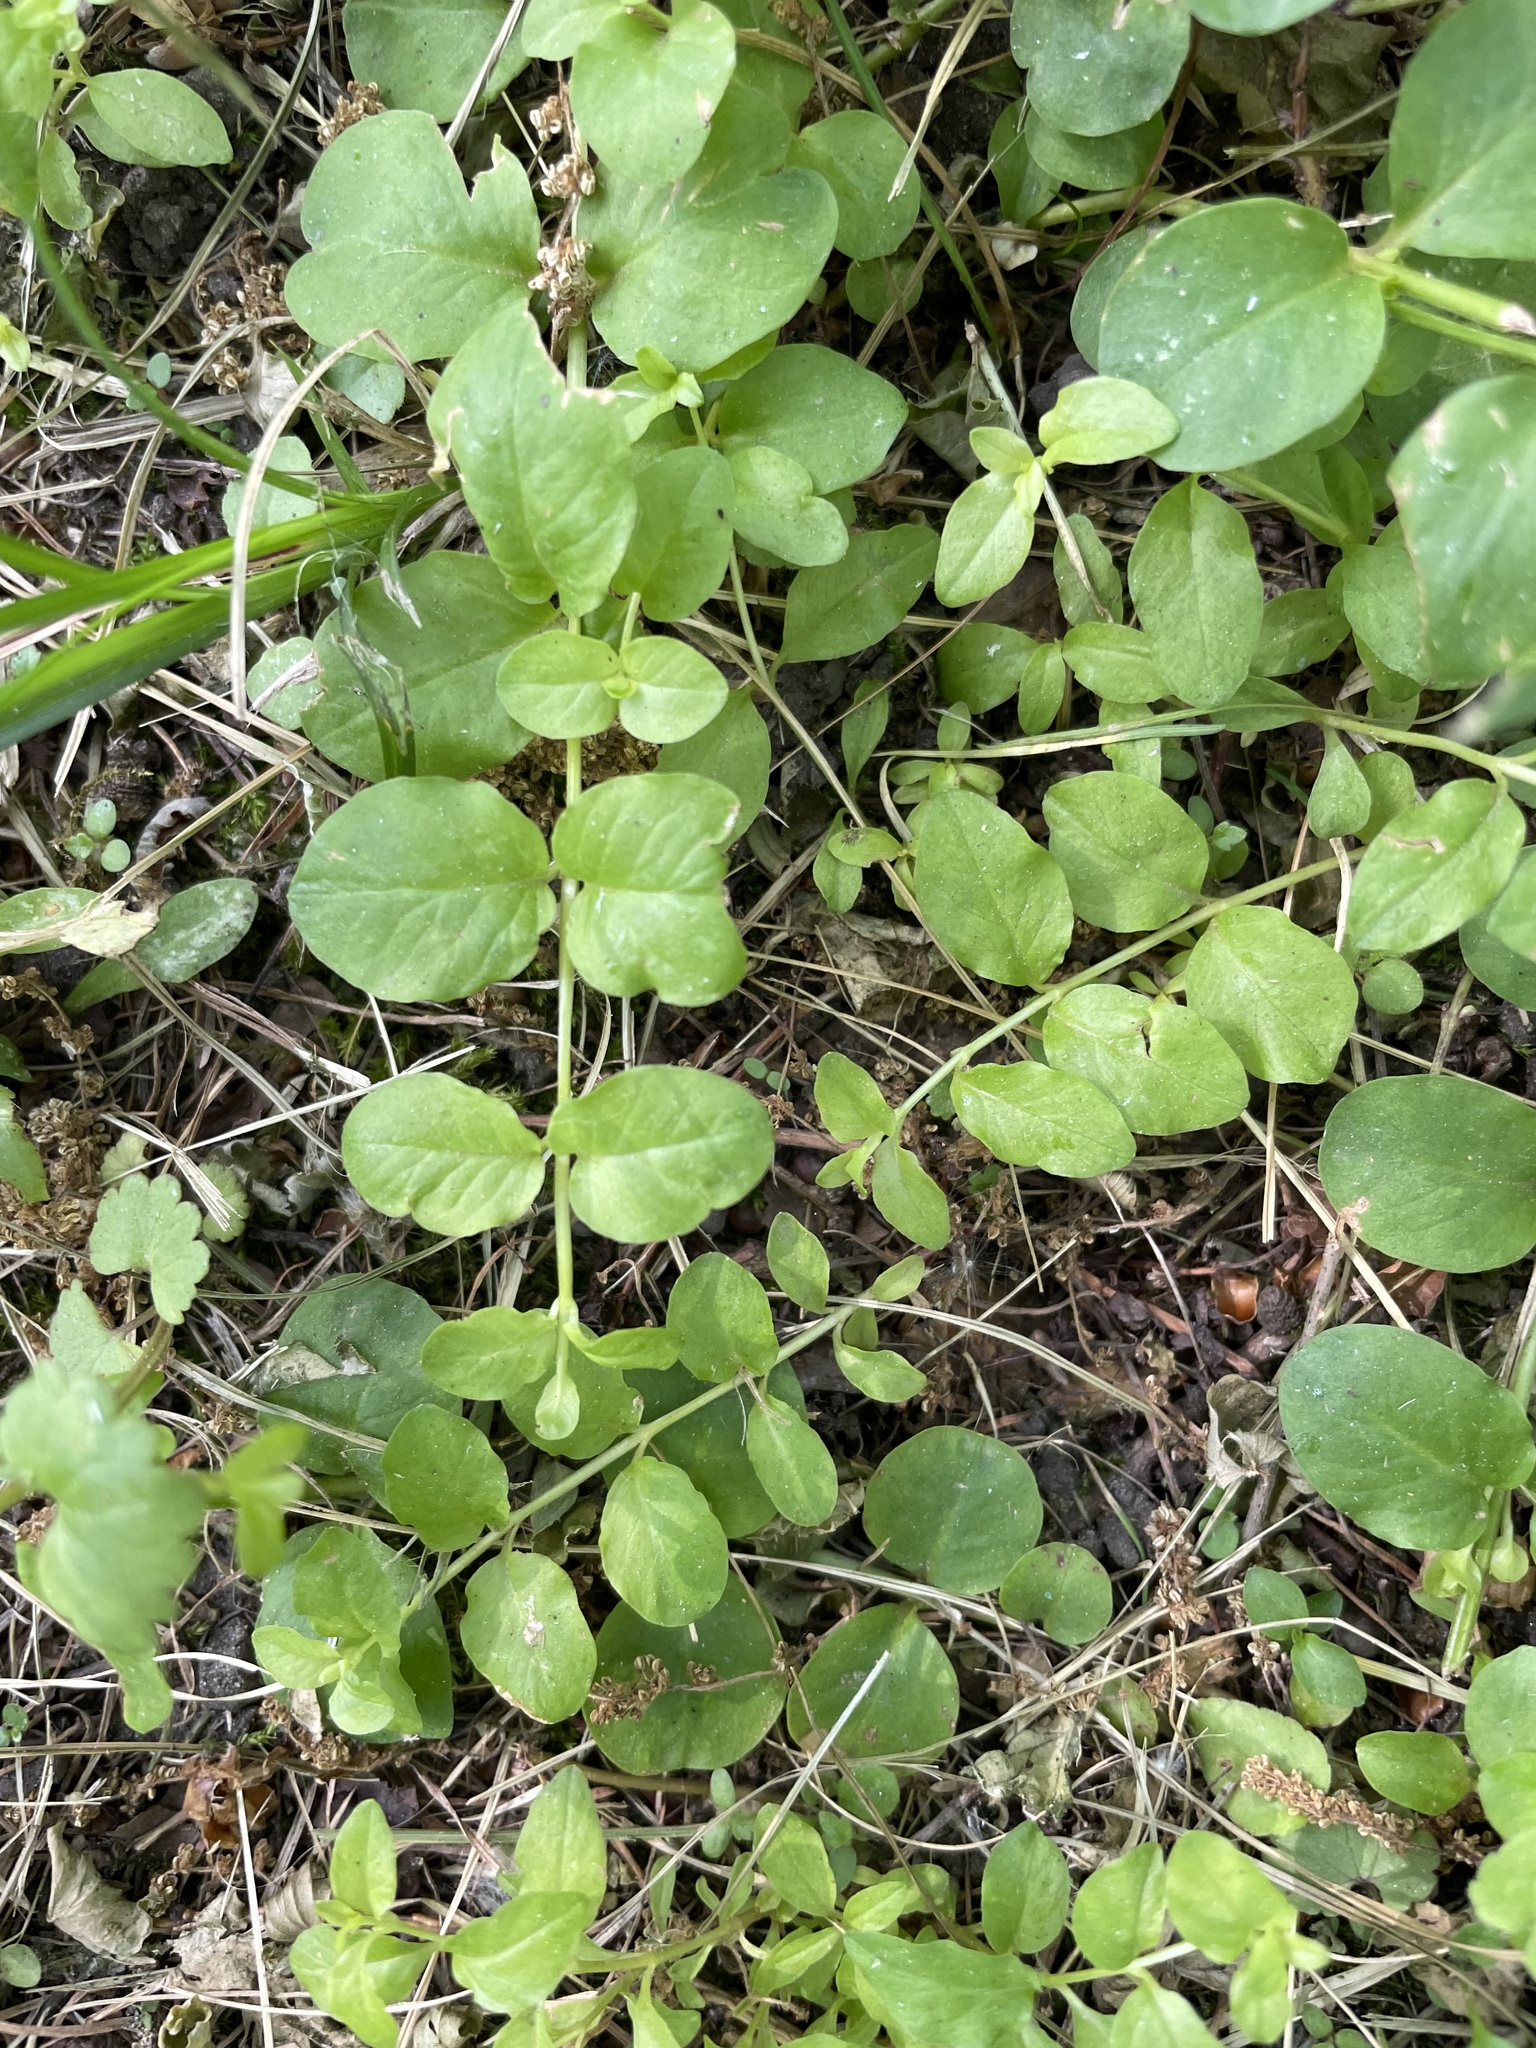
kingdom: Plantae
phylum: Tracheophyta
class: Magnoliopsida
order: Ericales
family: Primulaceae
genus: Lysimachia
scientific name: Lysimachia nummularia
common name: Moneywort
